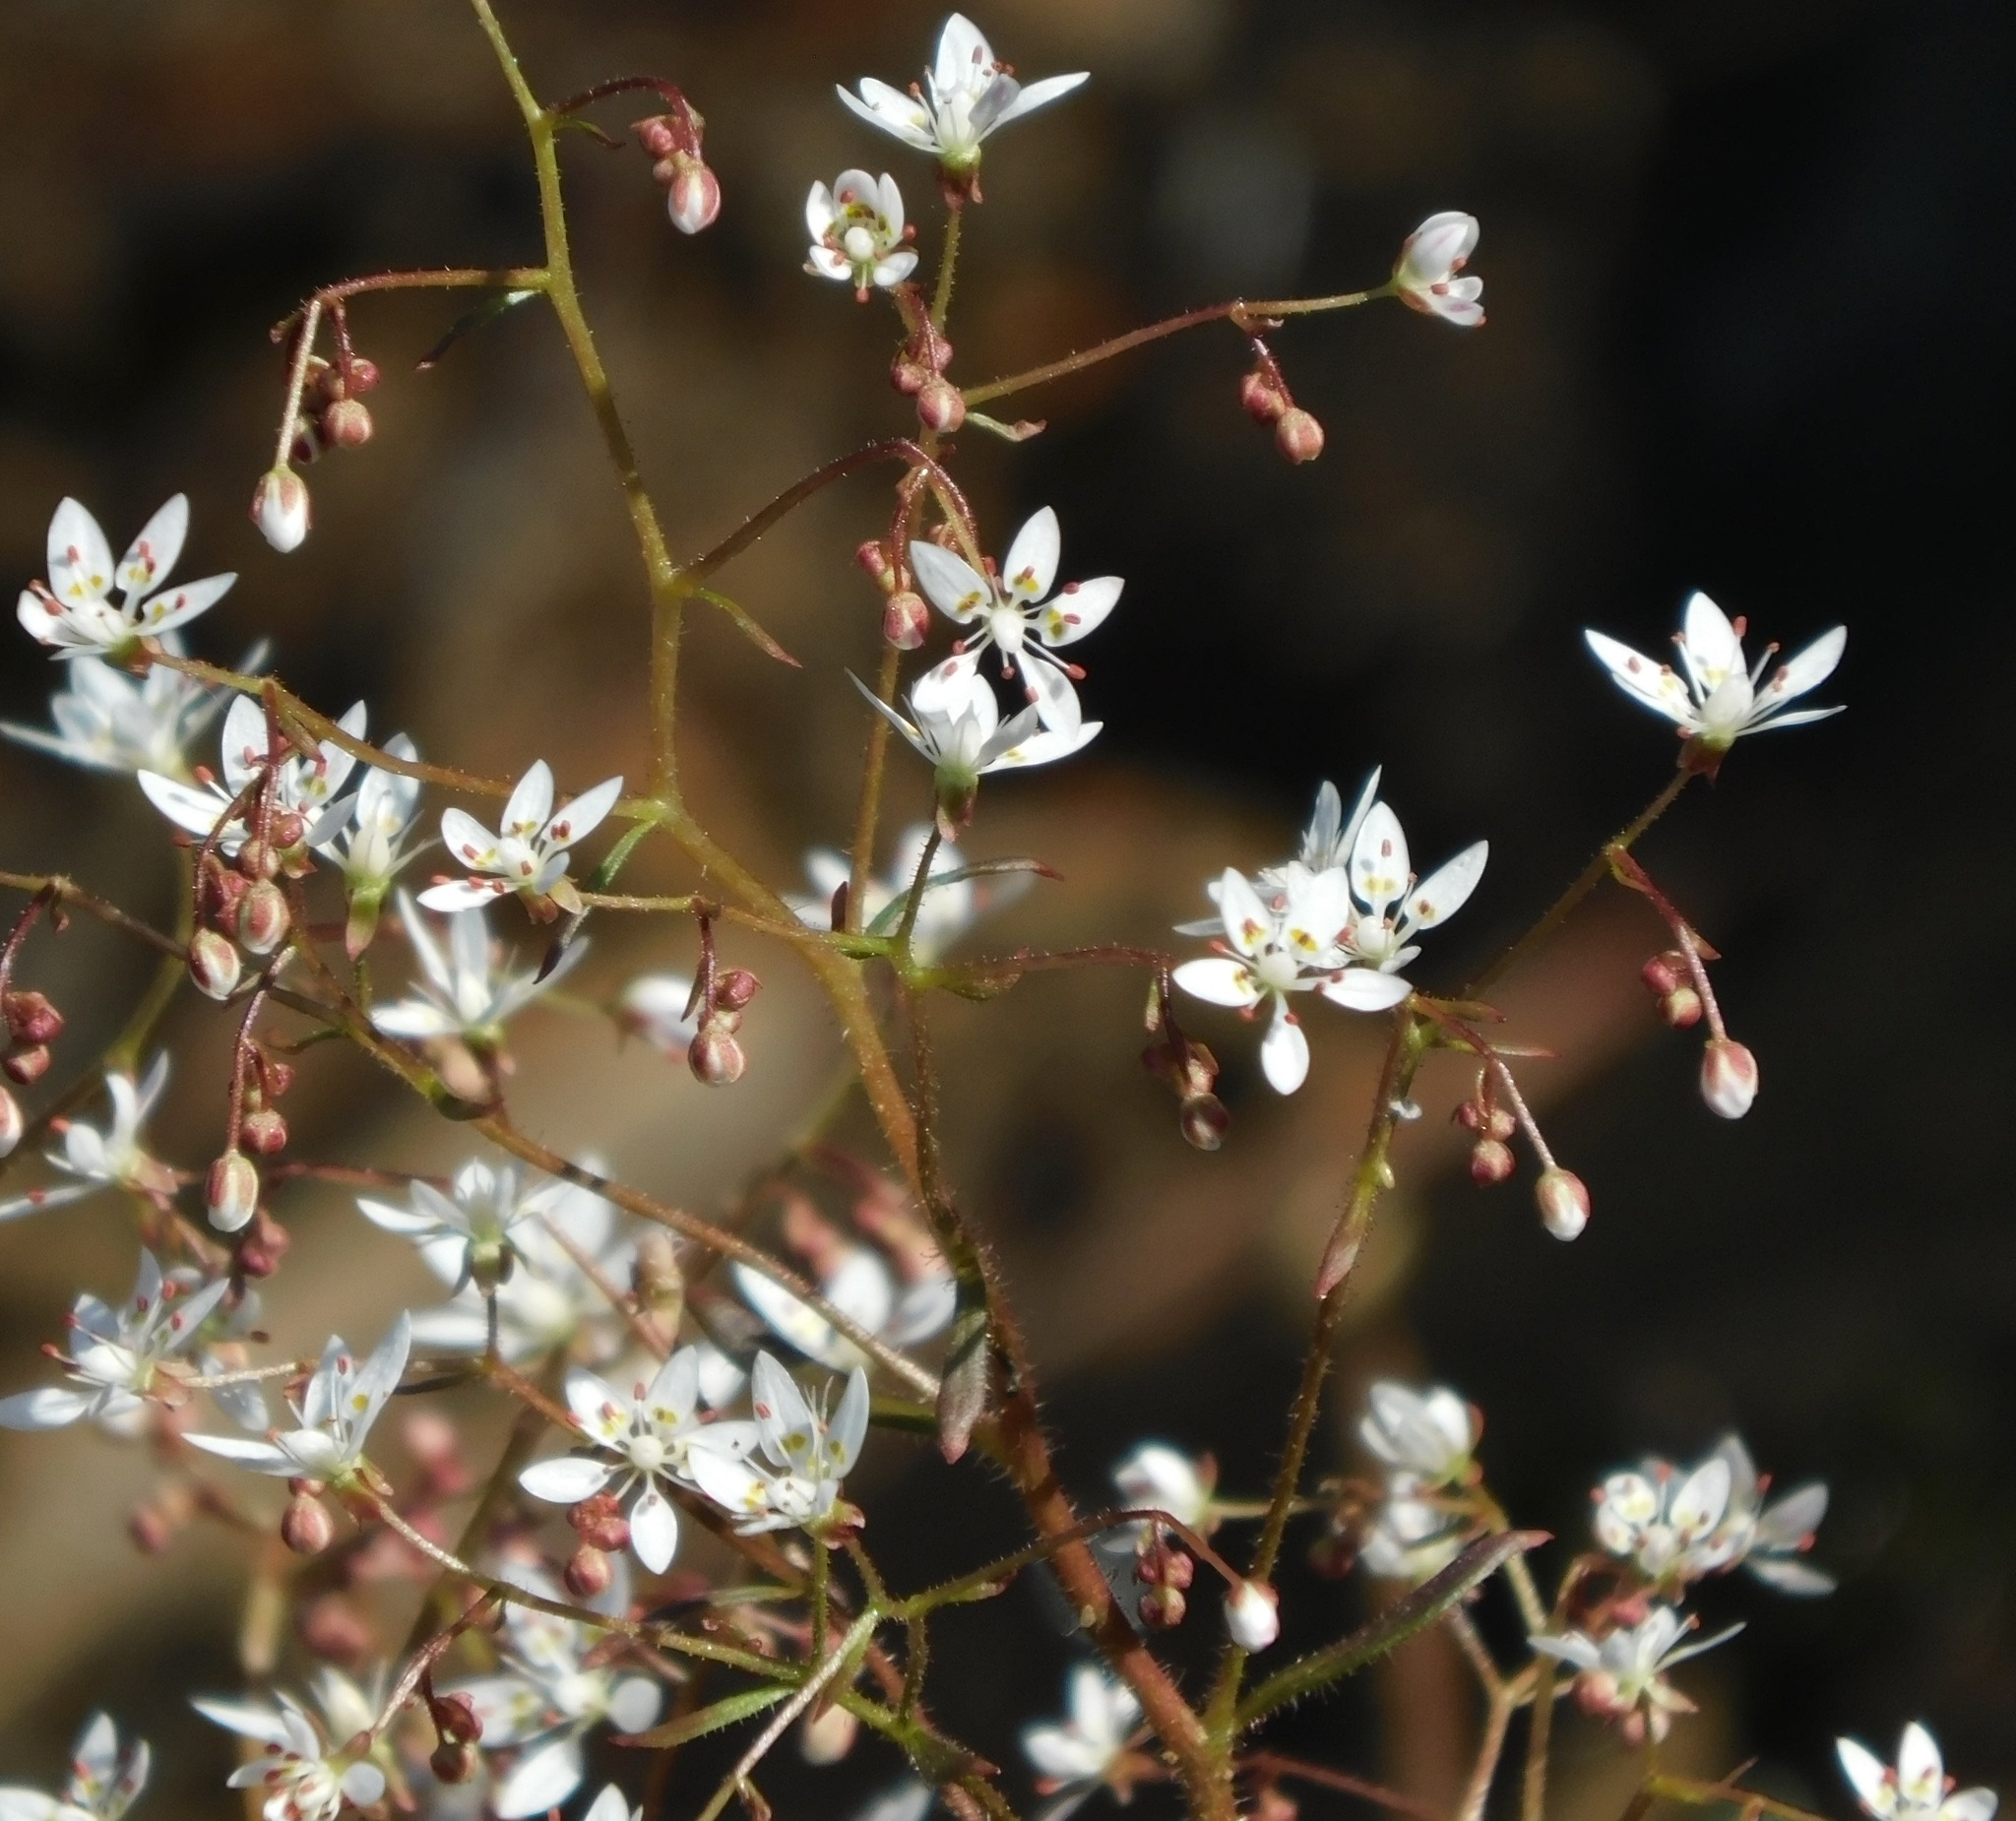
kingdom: Plantae
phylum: Tracheophyta
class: Magnoliopsida
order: Saxifragales
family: Saxifragaceae
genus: Micranthes
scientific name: Micranthes petiolaris
